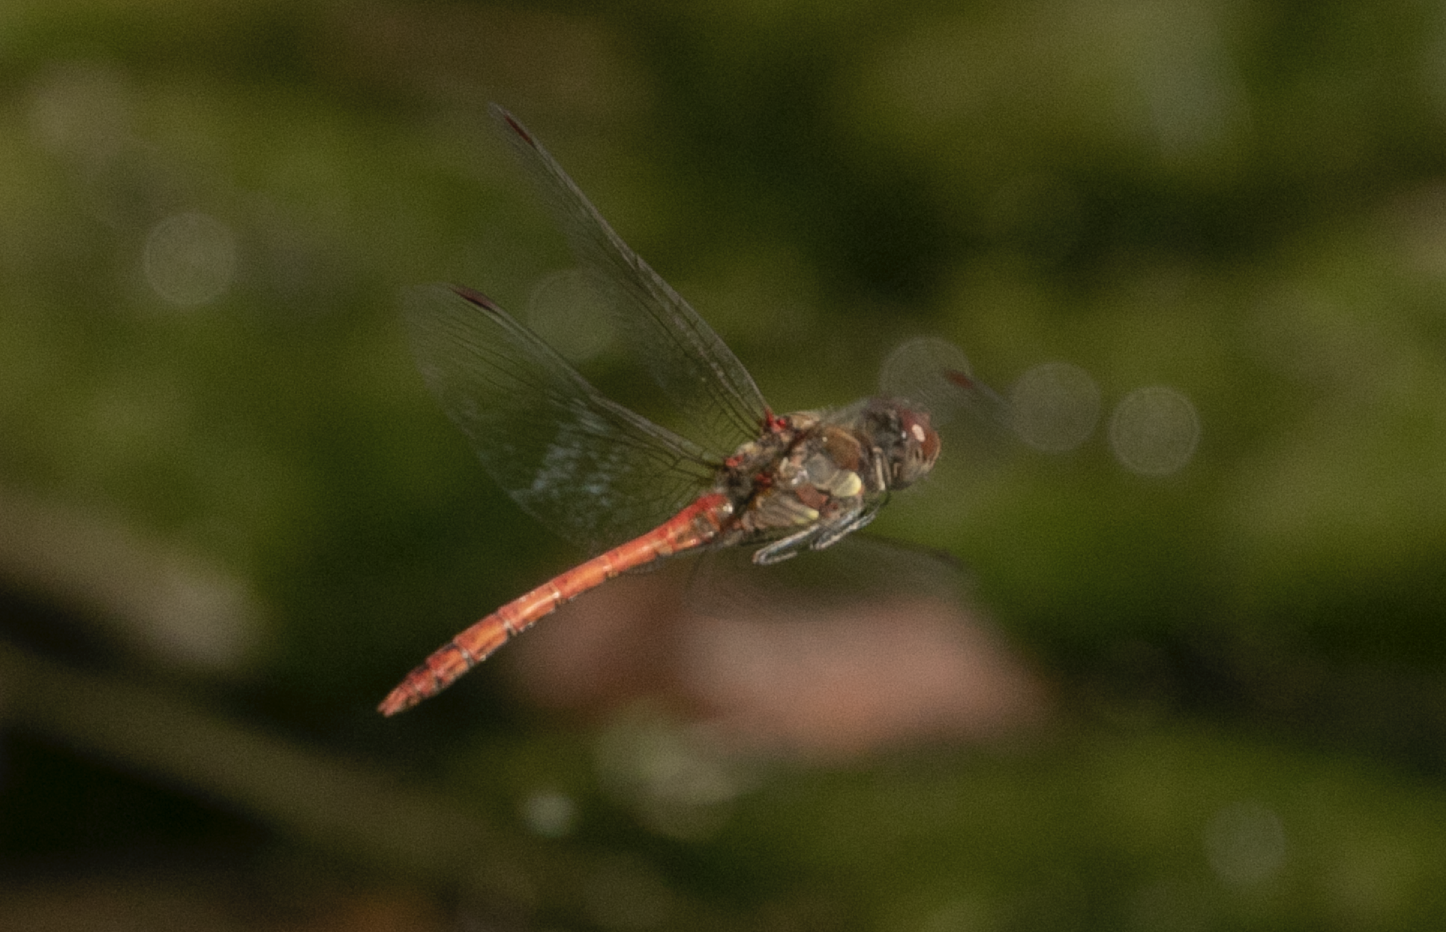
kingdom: Animalia
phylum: Arthropoda
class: Insecta
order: Odonata
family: Libellulidae
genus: Sympetrum
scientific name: Sympetrum striolatum
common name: Common darter
